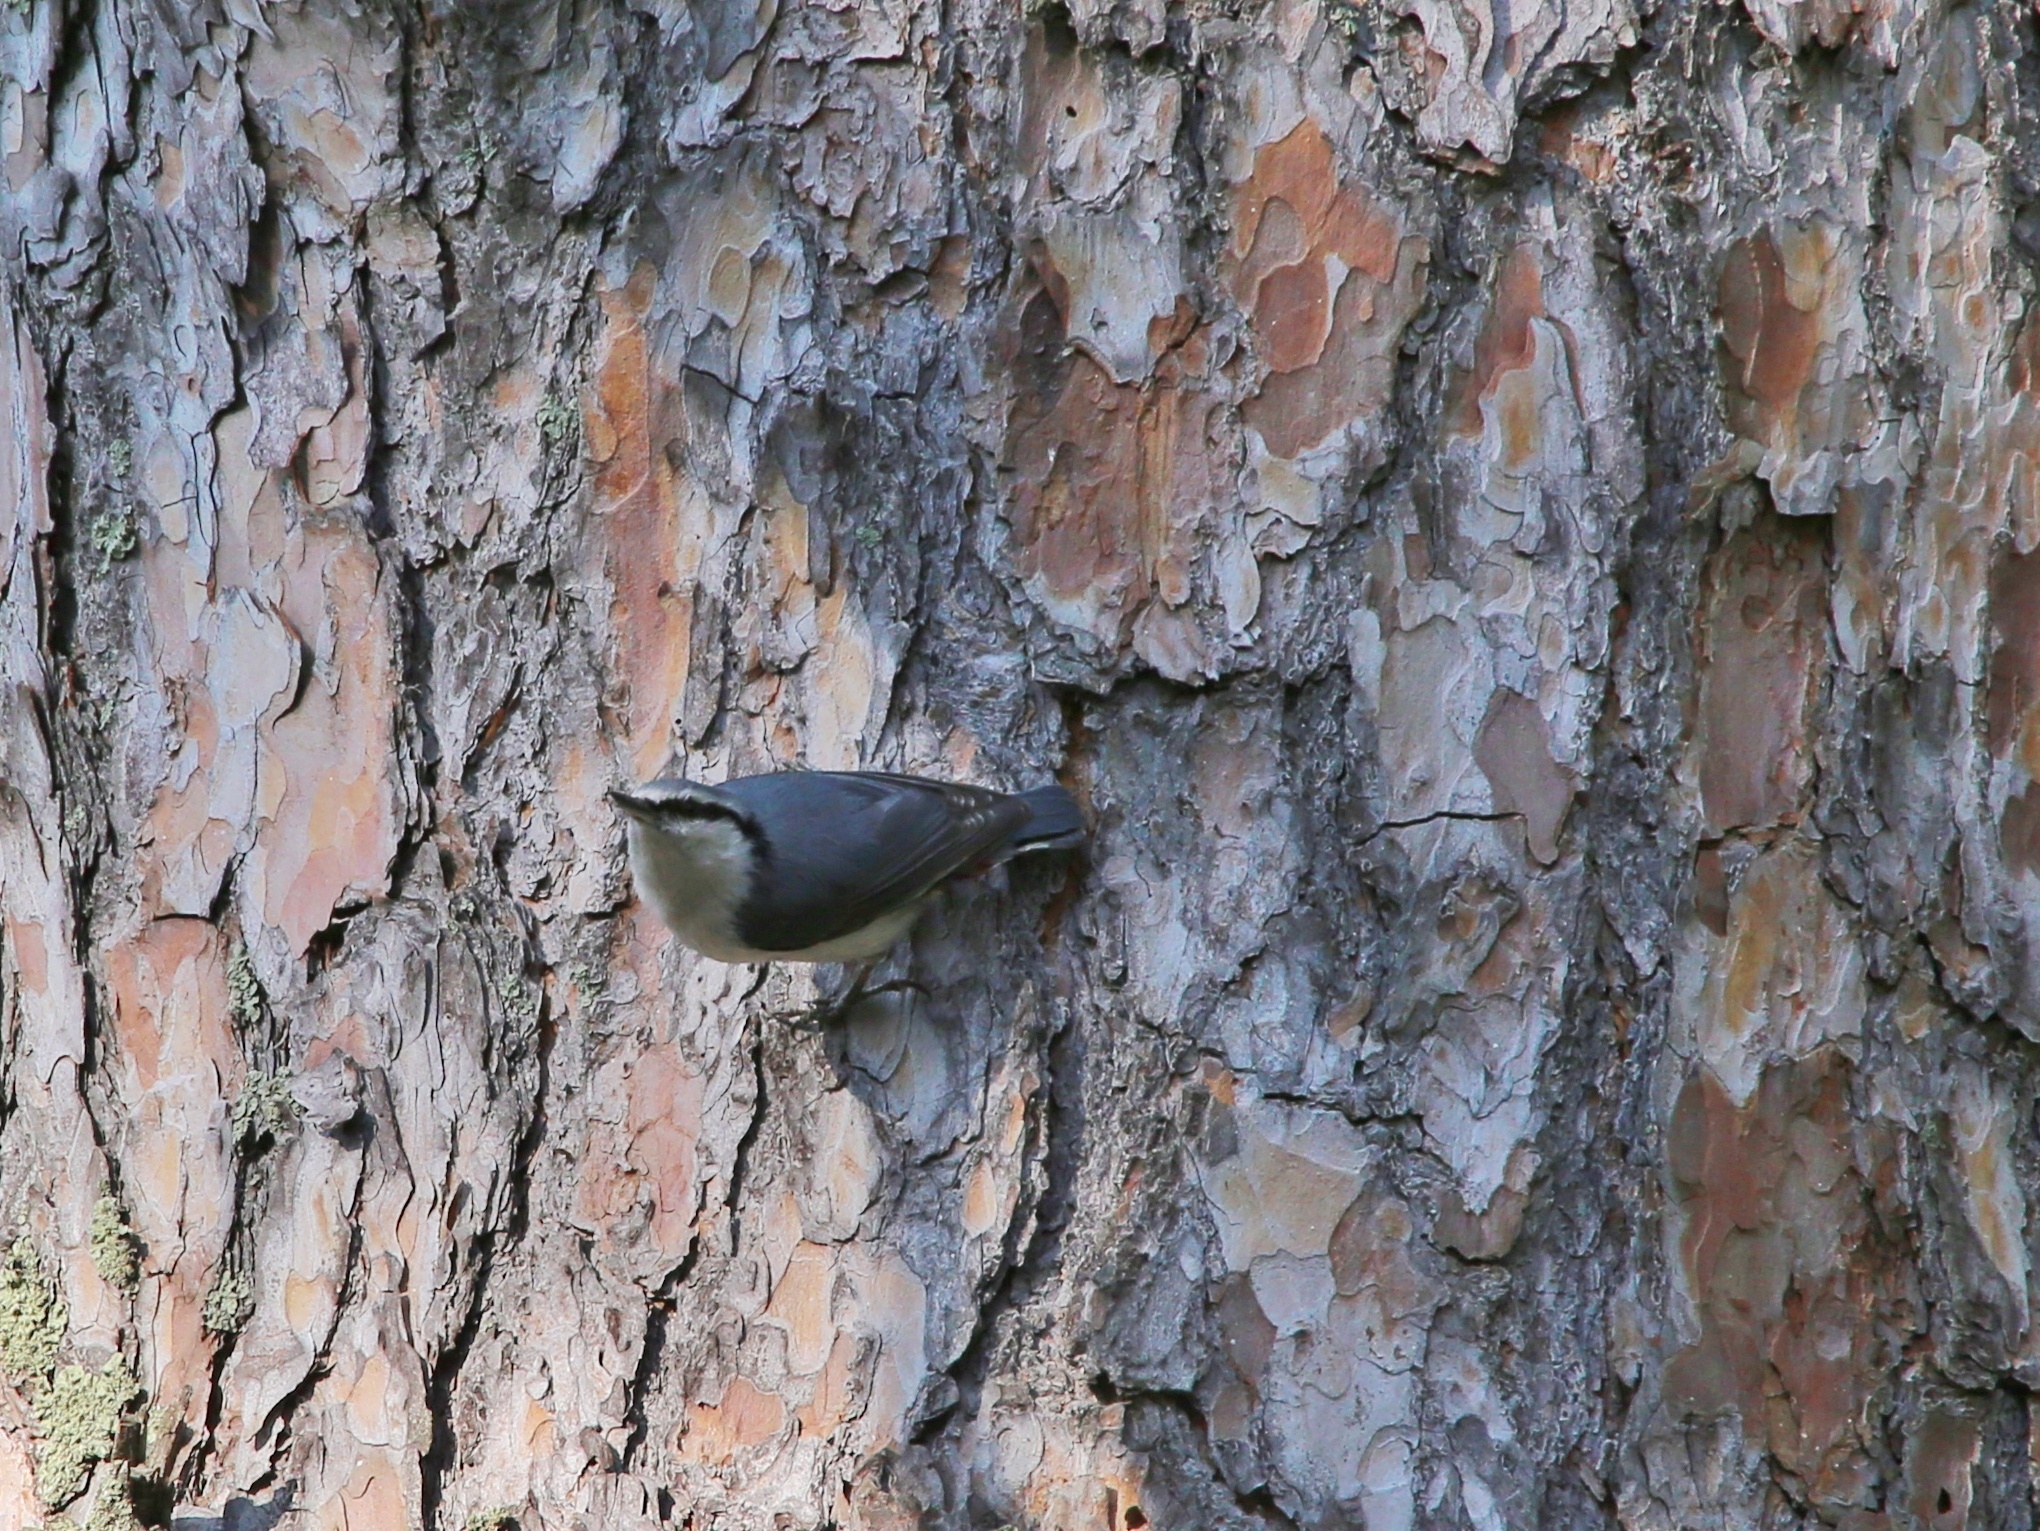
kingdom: Animalia
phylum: Chordata
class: Aves
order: Passeriformes
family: Sittidae
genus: Sitta
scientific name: Sitta europaea
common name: Eurasian nuthatch
